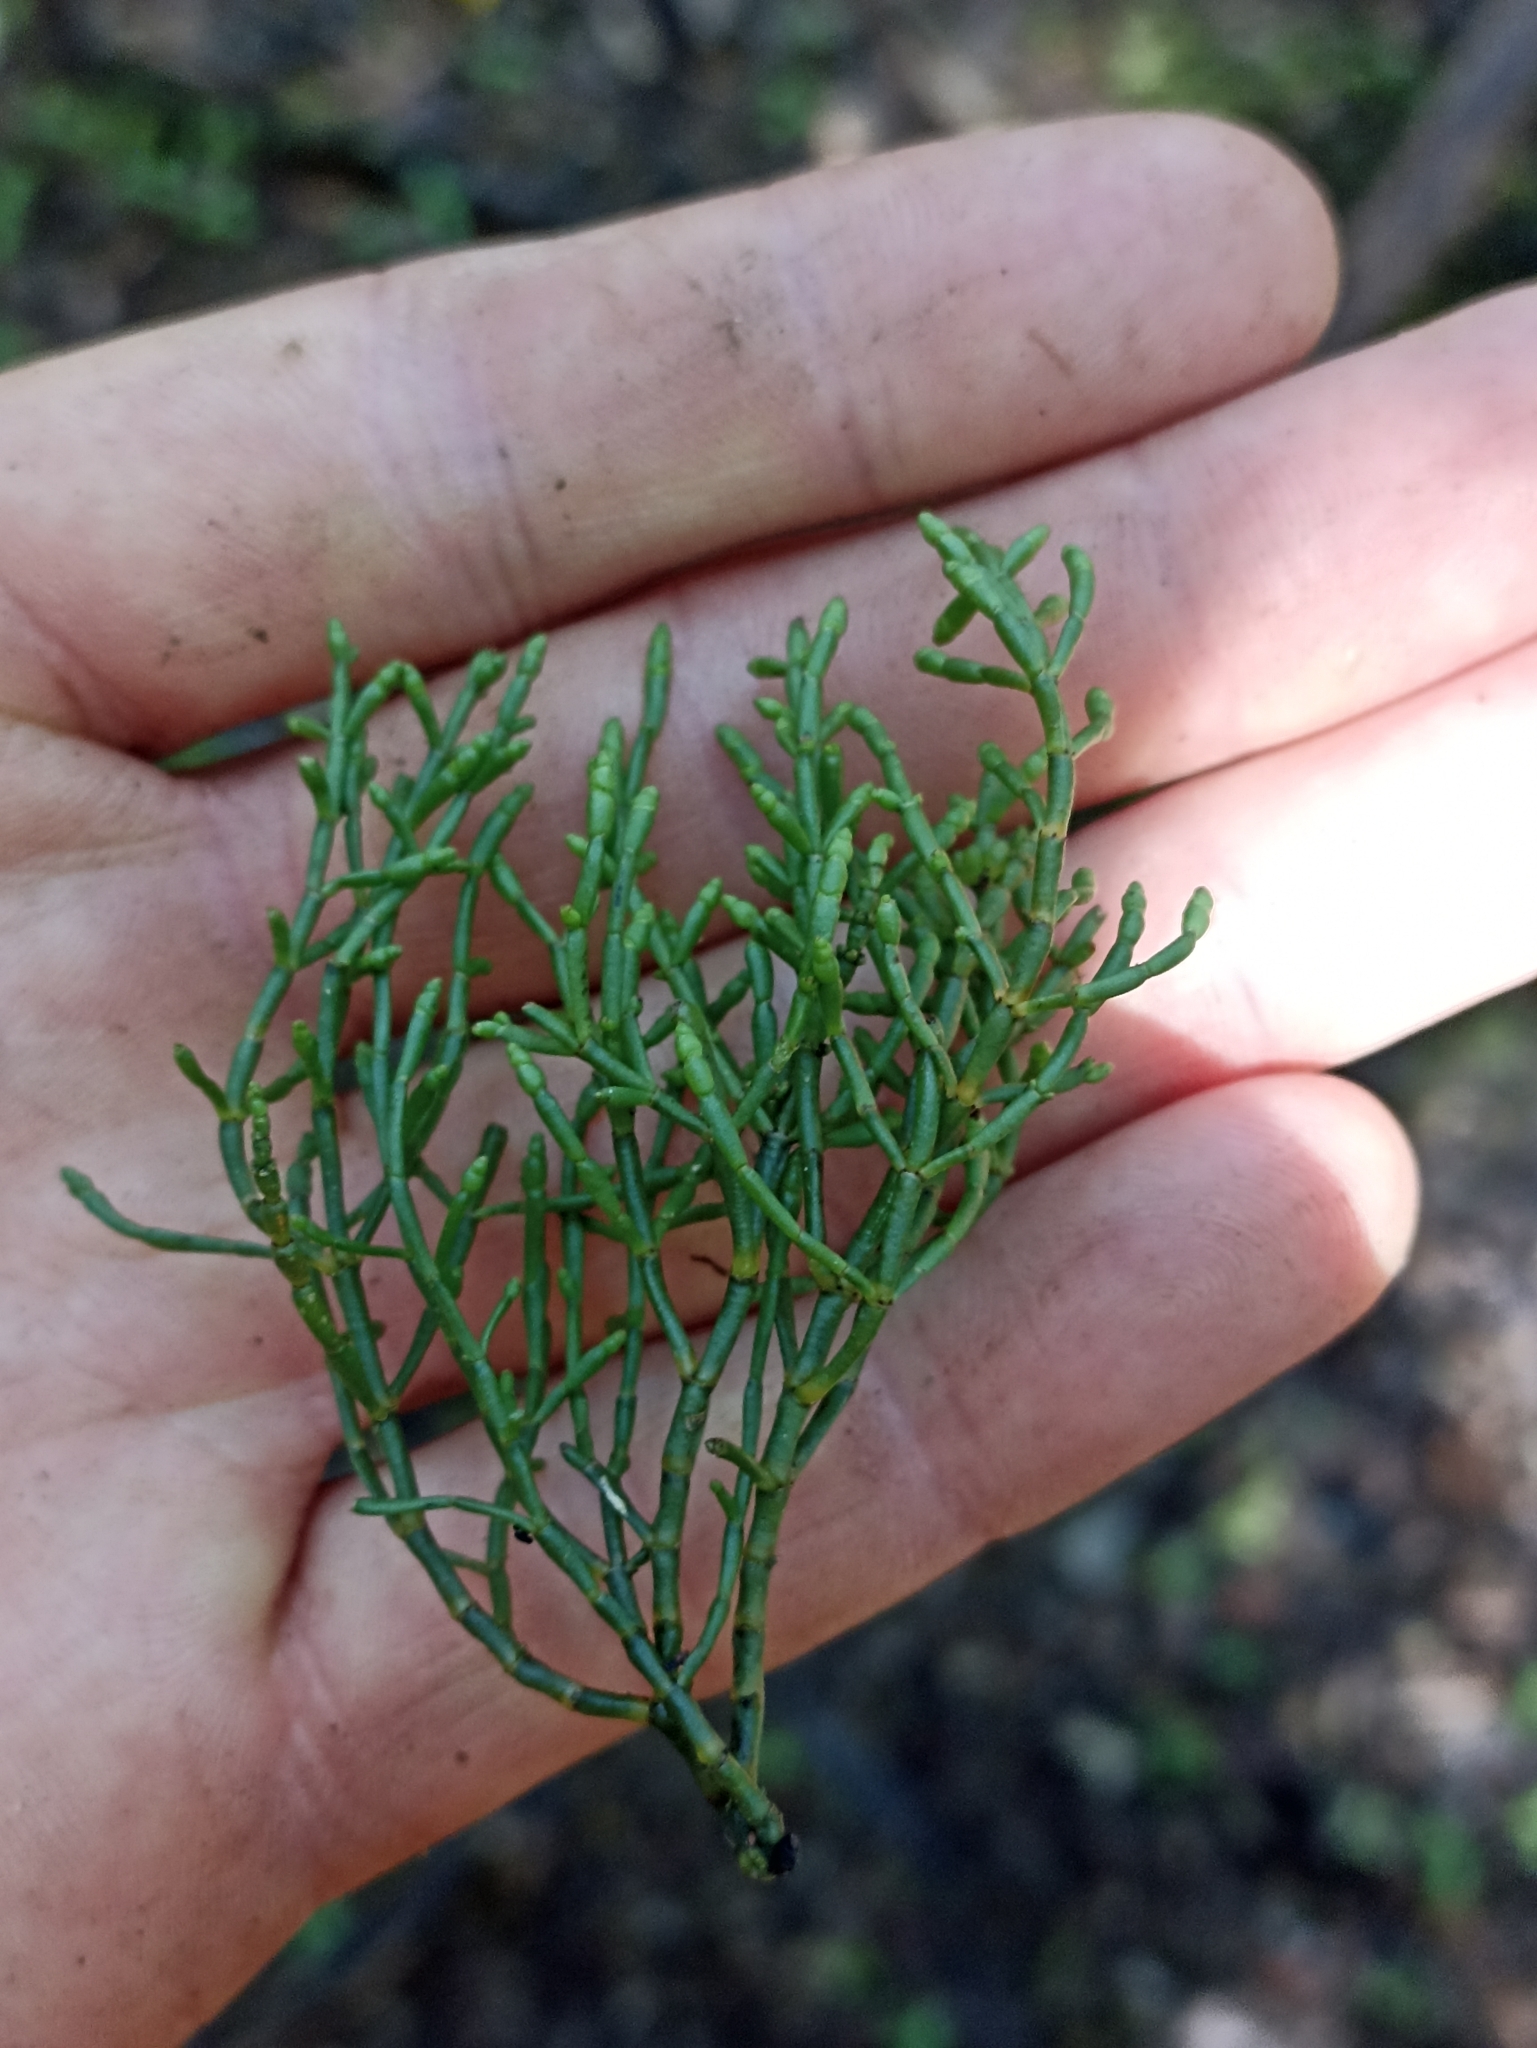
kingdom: Plantae
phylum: Tracheophyta
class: Magnoliopsida
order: Santalales
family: Viscaceae
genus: Korthalsella
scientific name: Korthalsella salicornioides
